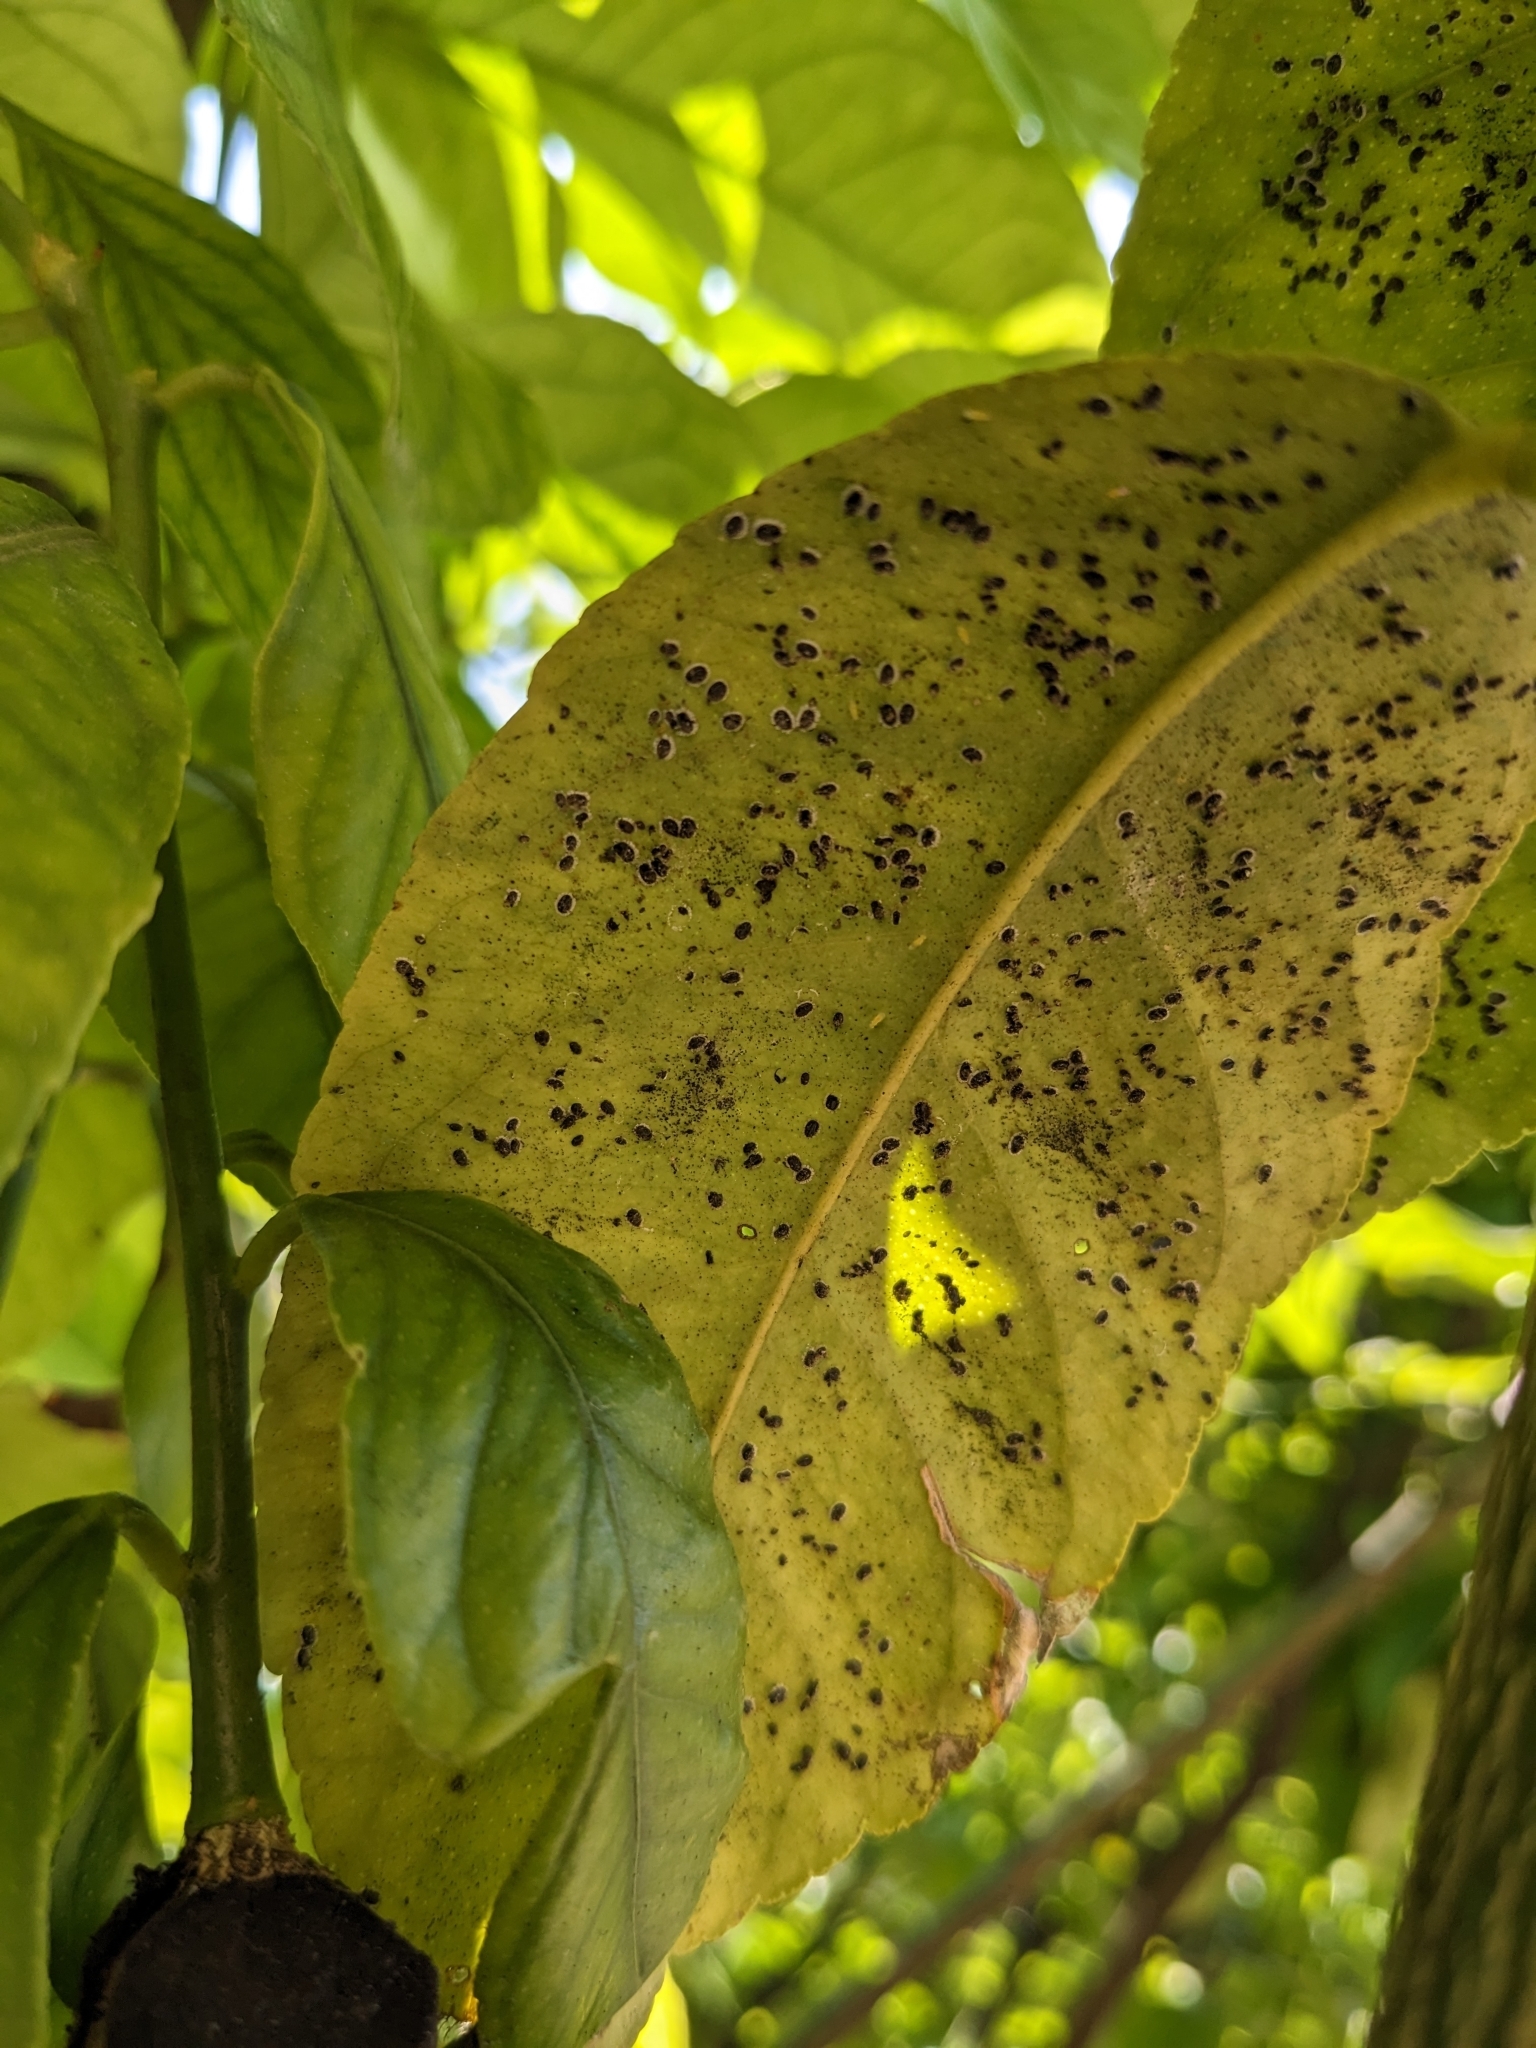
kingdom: Animalia
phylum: Arthropoda
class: Insecta
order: Hemiptera
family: Aleyrodidae
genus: Aleurocanthus
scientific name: Aleurocanthus spiniferus
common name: Orange spiny whitefly
